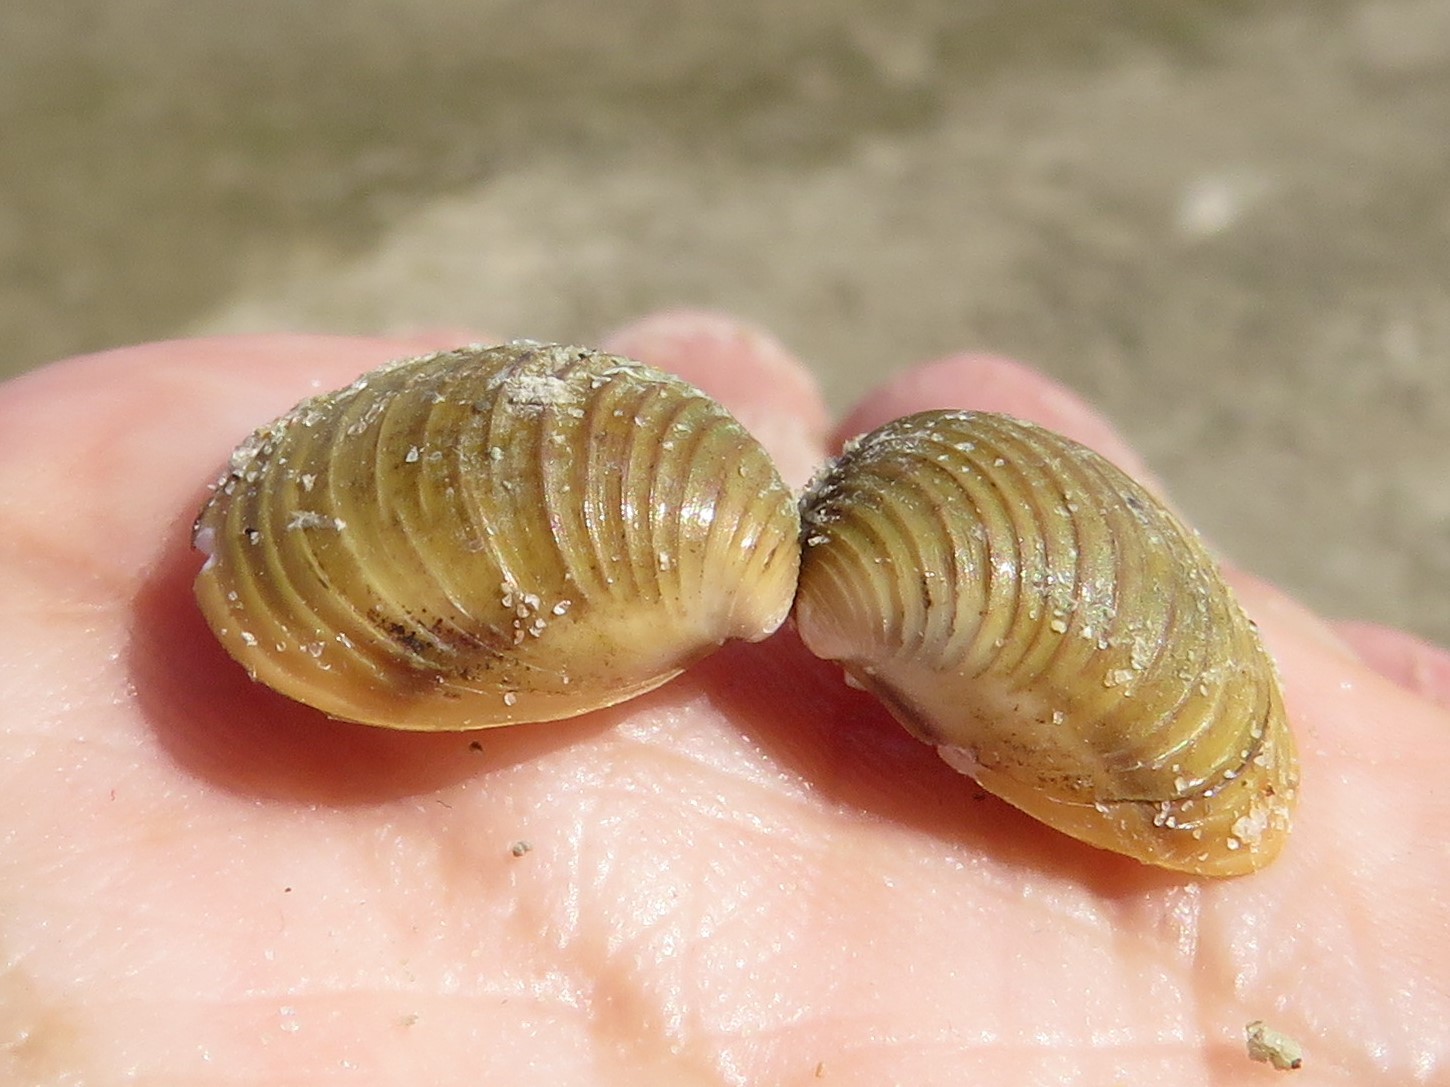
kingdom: Animalia
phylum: Mollusca
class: Bivalvia
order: Venerida
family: Cyrenidae
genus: Corbicula
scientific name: Corbicula fluminea
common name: Asian clam
